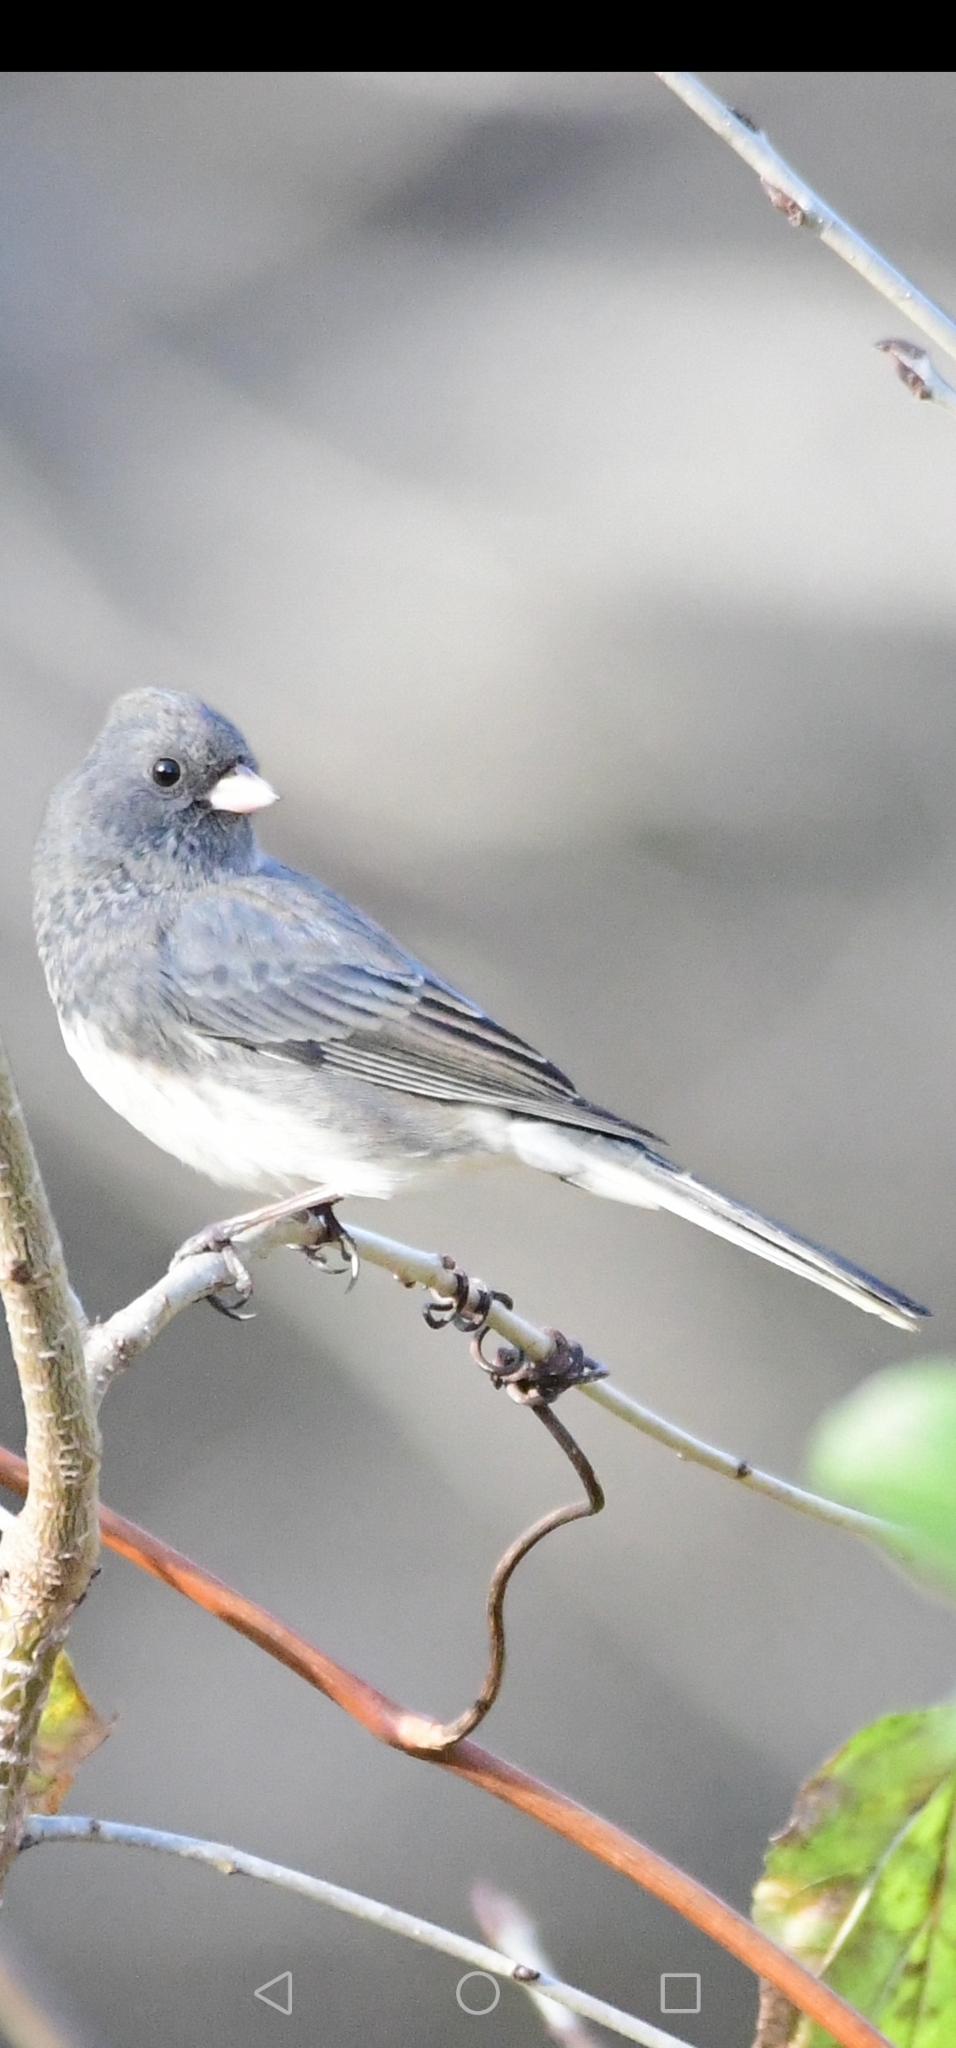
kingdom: Animalia
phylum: Chordata
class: Aves
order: Passeriformes
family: Passerellidae
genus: Junco
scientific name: Junco hyemalis
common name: Dark-eyed junco
